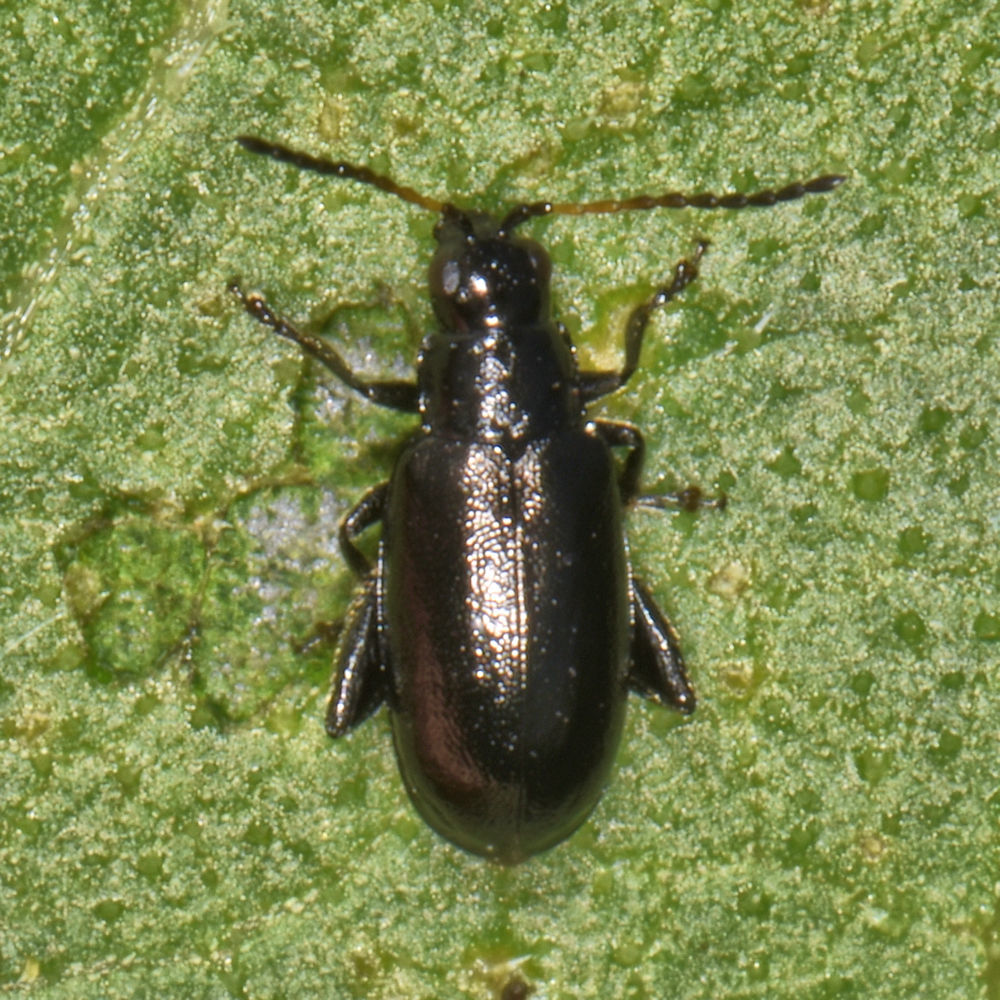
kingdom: Animalia
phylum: Arthropoda
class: Insecta
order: Coleoptera
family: Chrysomelidae
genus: Systena
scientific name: Systena hudsonias
